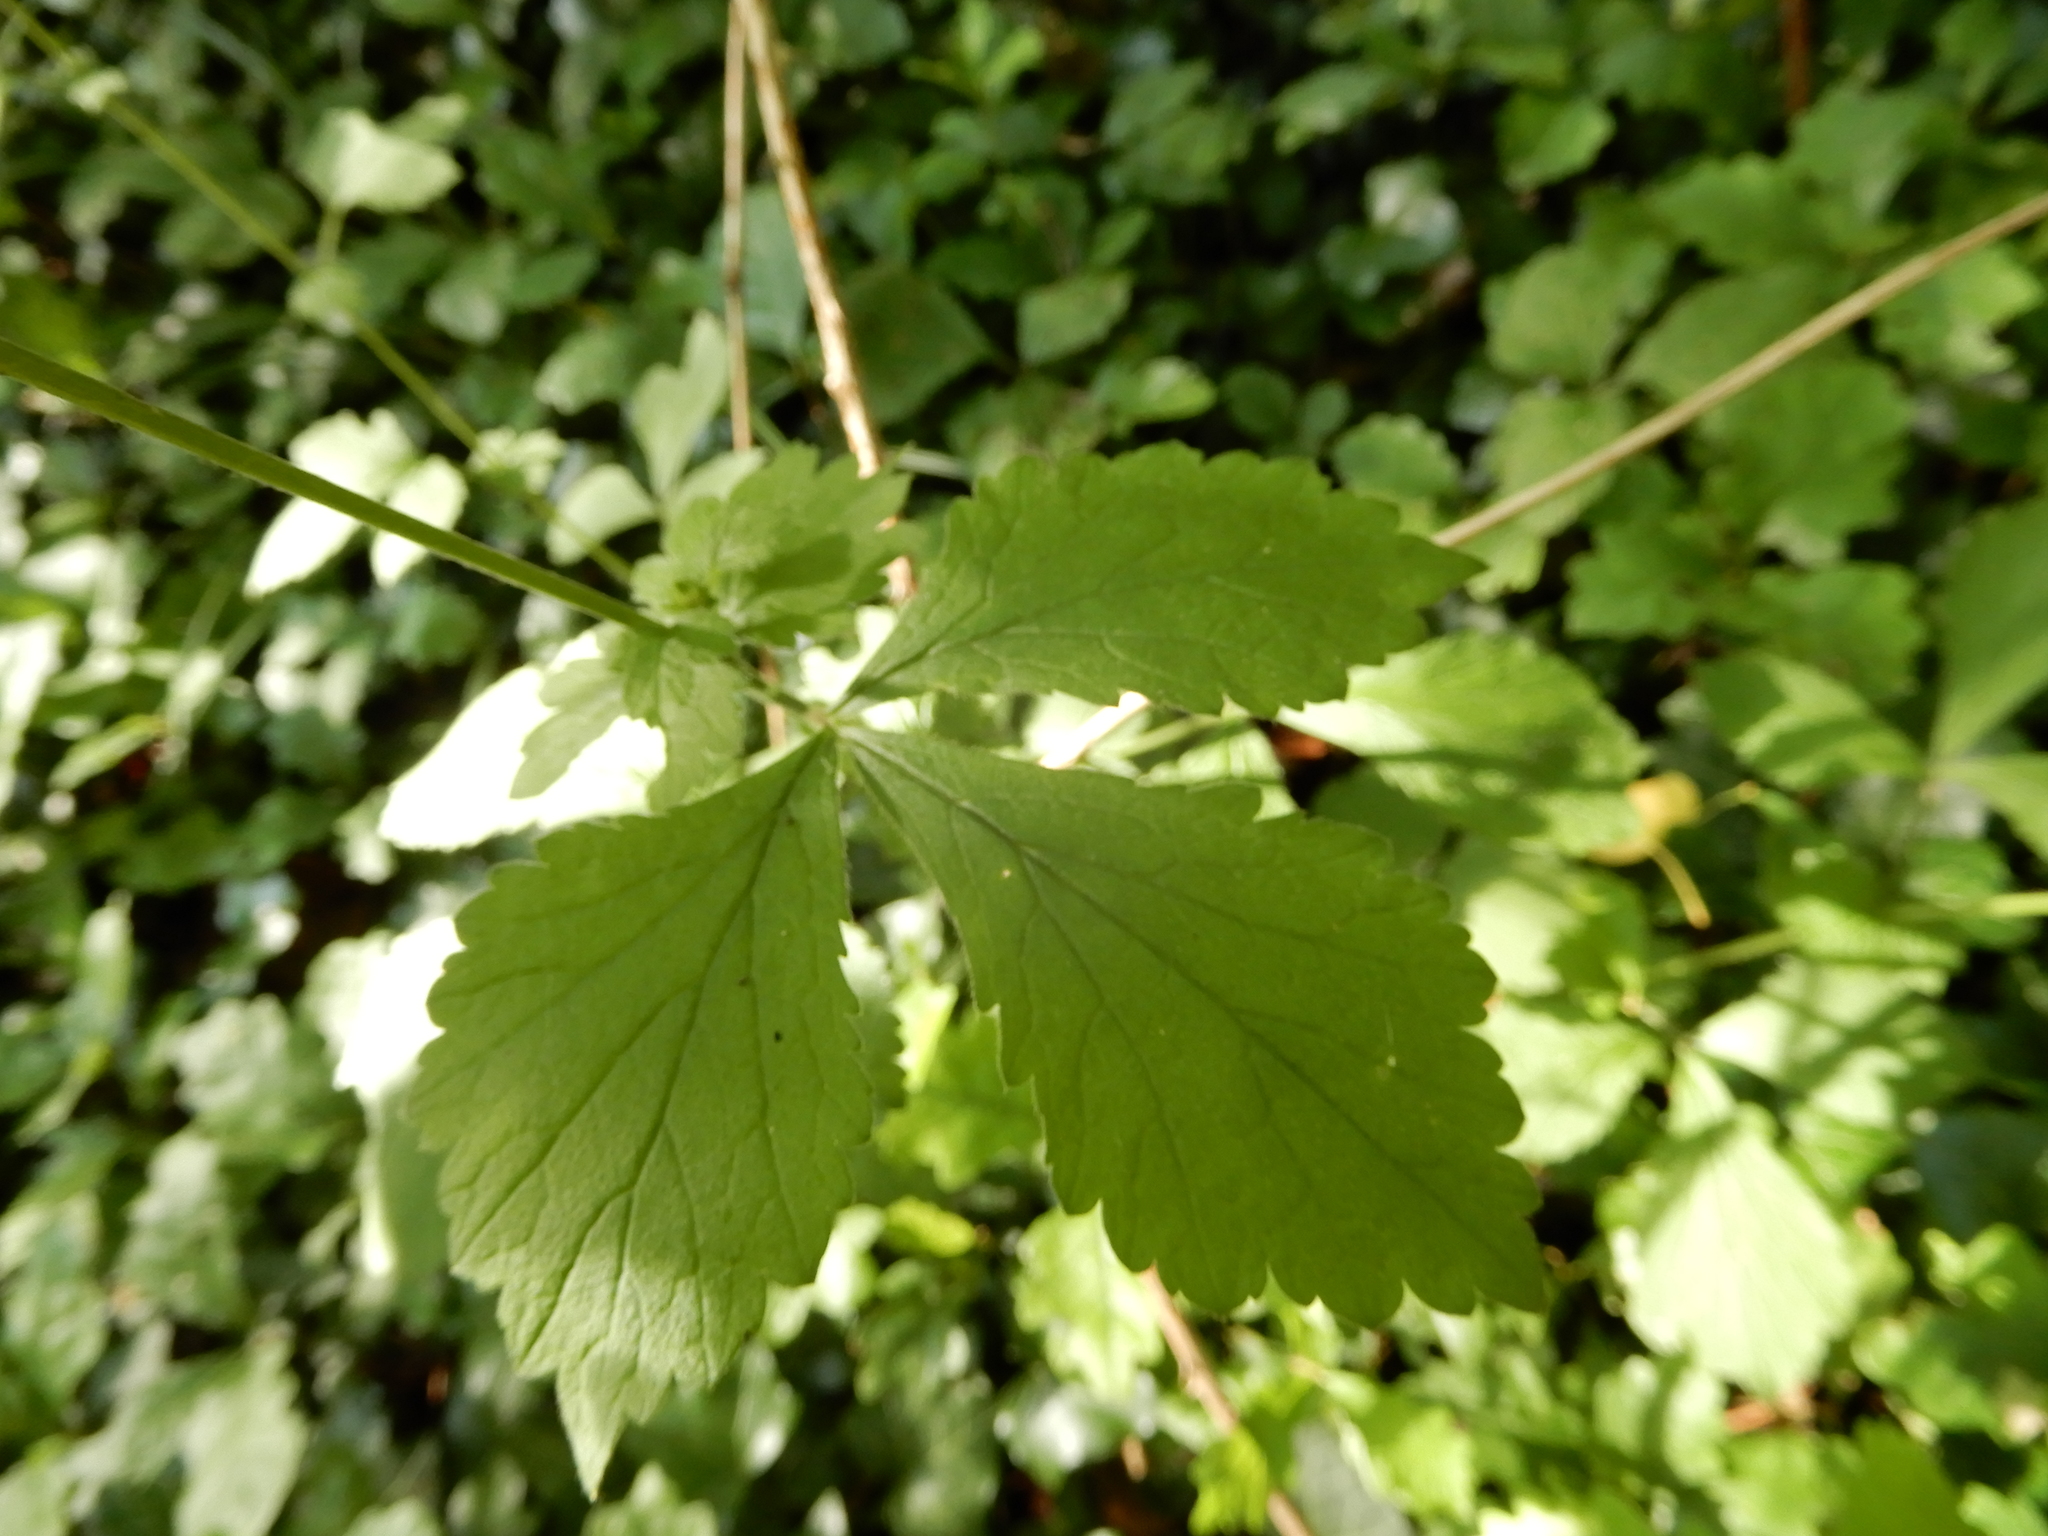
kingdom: Plantae
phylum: Tracheophyta
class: Magnoliopsida
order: Rosales
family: Rosaceae
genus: Geum
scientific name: Geum urbanum
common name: Wood avens
